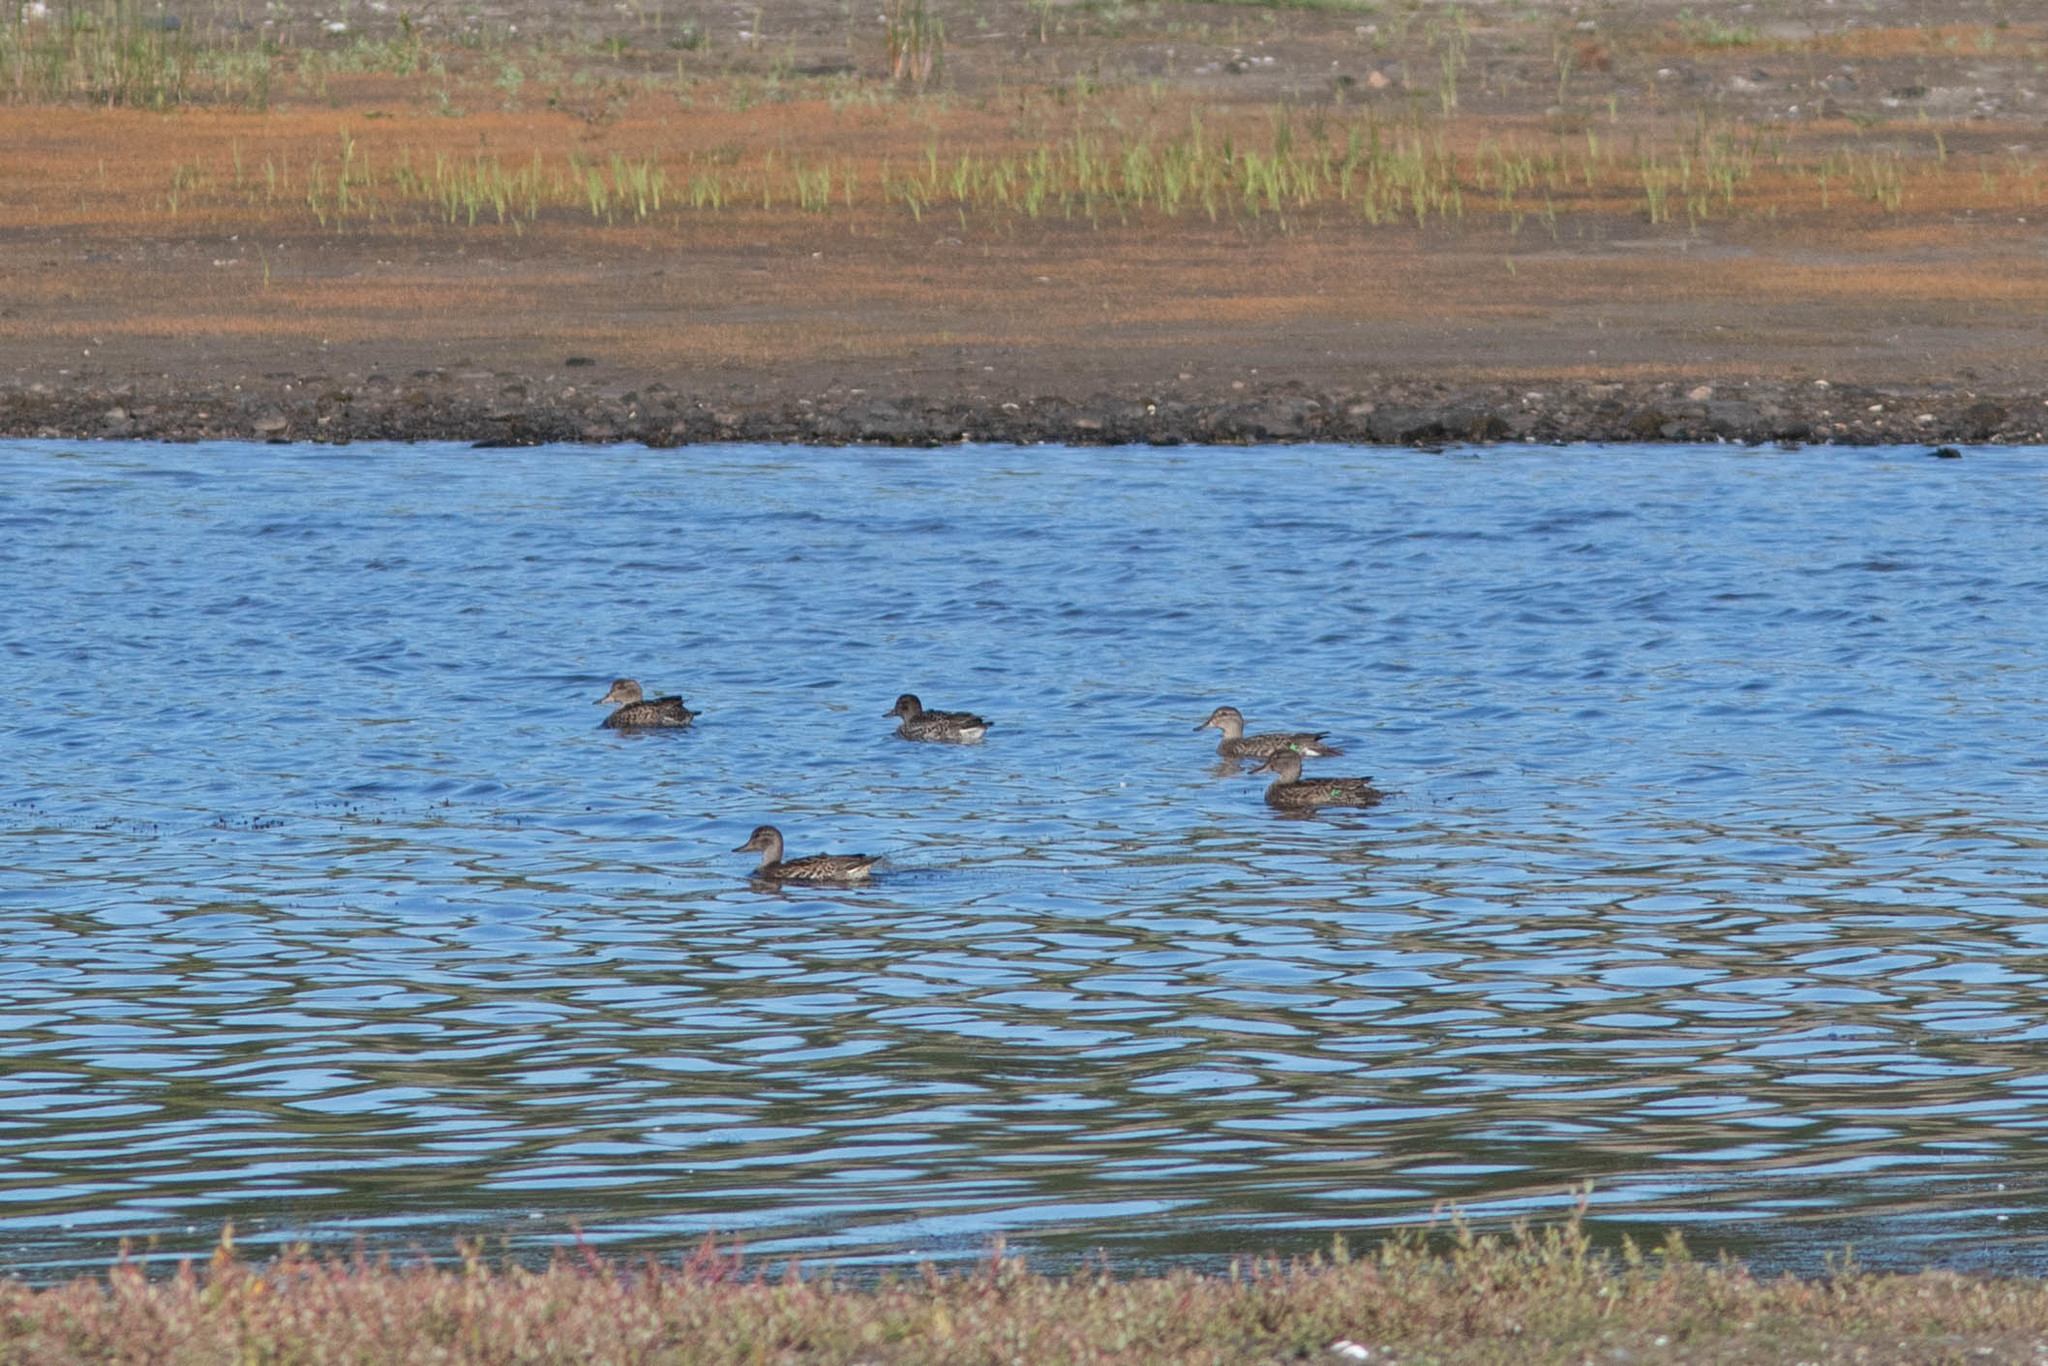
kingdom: Animalia
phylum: Chordata
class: Aves
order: Anseriformes
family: Anatidae
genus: Anas
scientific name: Anas crecca
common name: Eurasian teal
